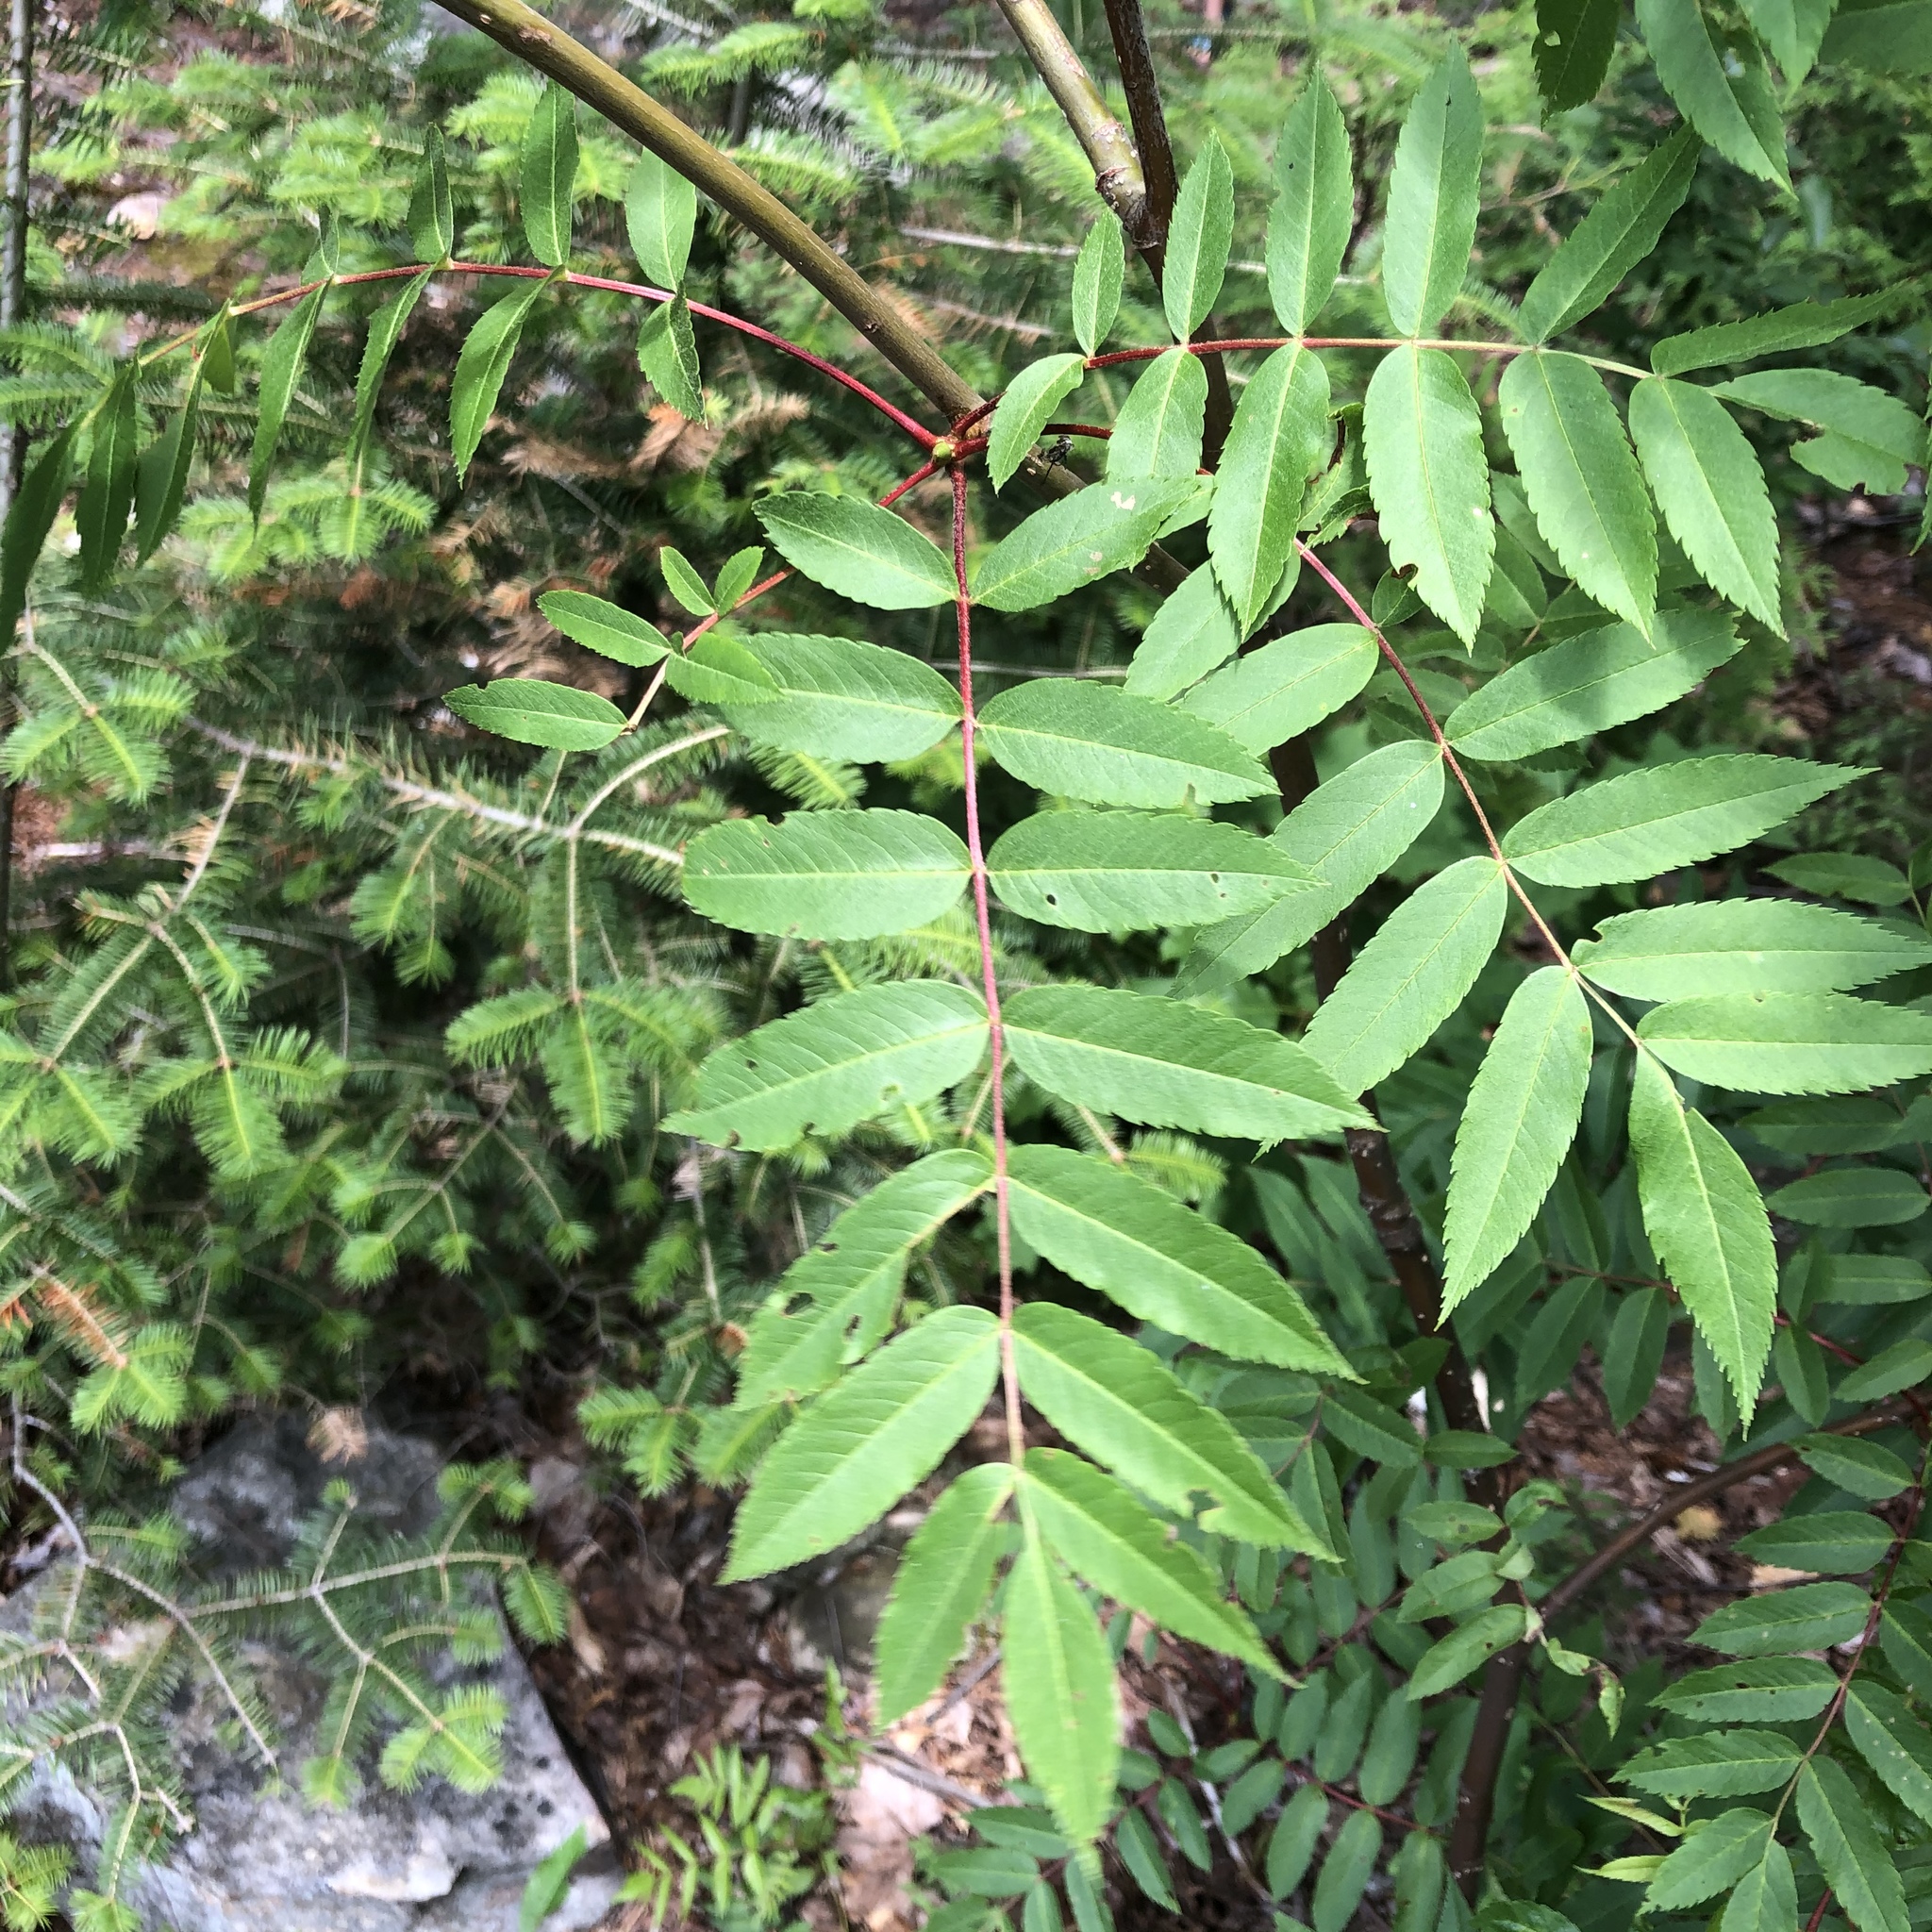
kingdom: Plantae
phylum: Tracheophyta
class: Magnoliopsida
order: Rosales
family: Rosaceae
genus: Sorbus
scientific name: Sorbus americana
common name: American mountain-ash
